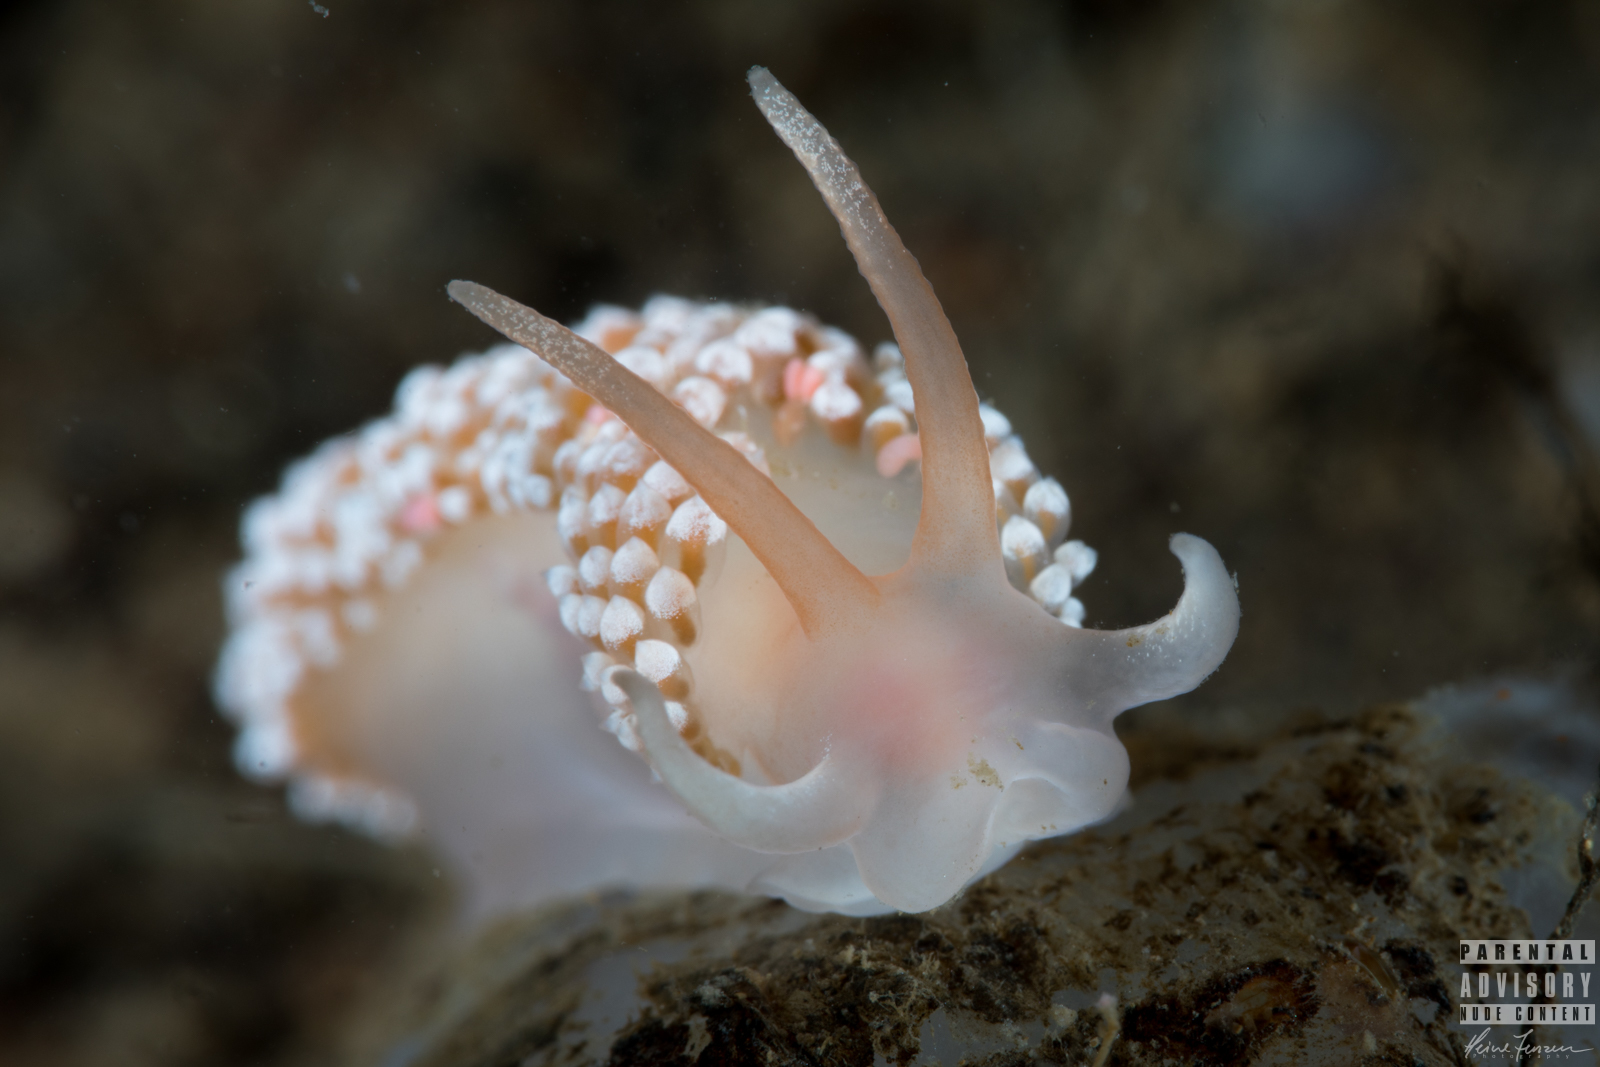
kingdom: Animalia
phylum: Mollusca
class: Gastropoda
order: Nudibranchia
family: Coryphellidae
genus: Coryphella
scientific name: Coryphella verrucosa
